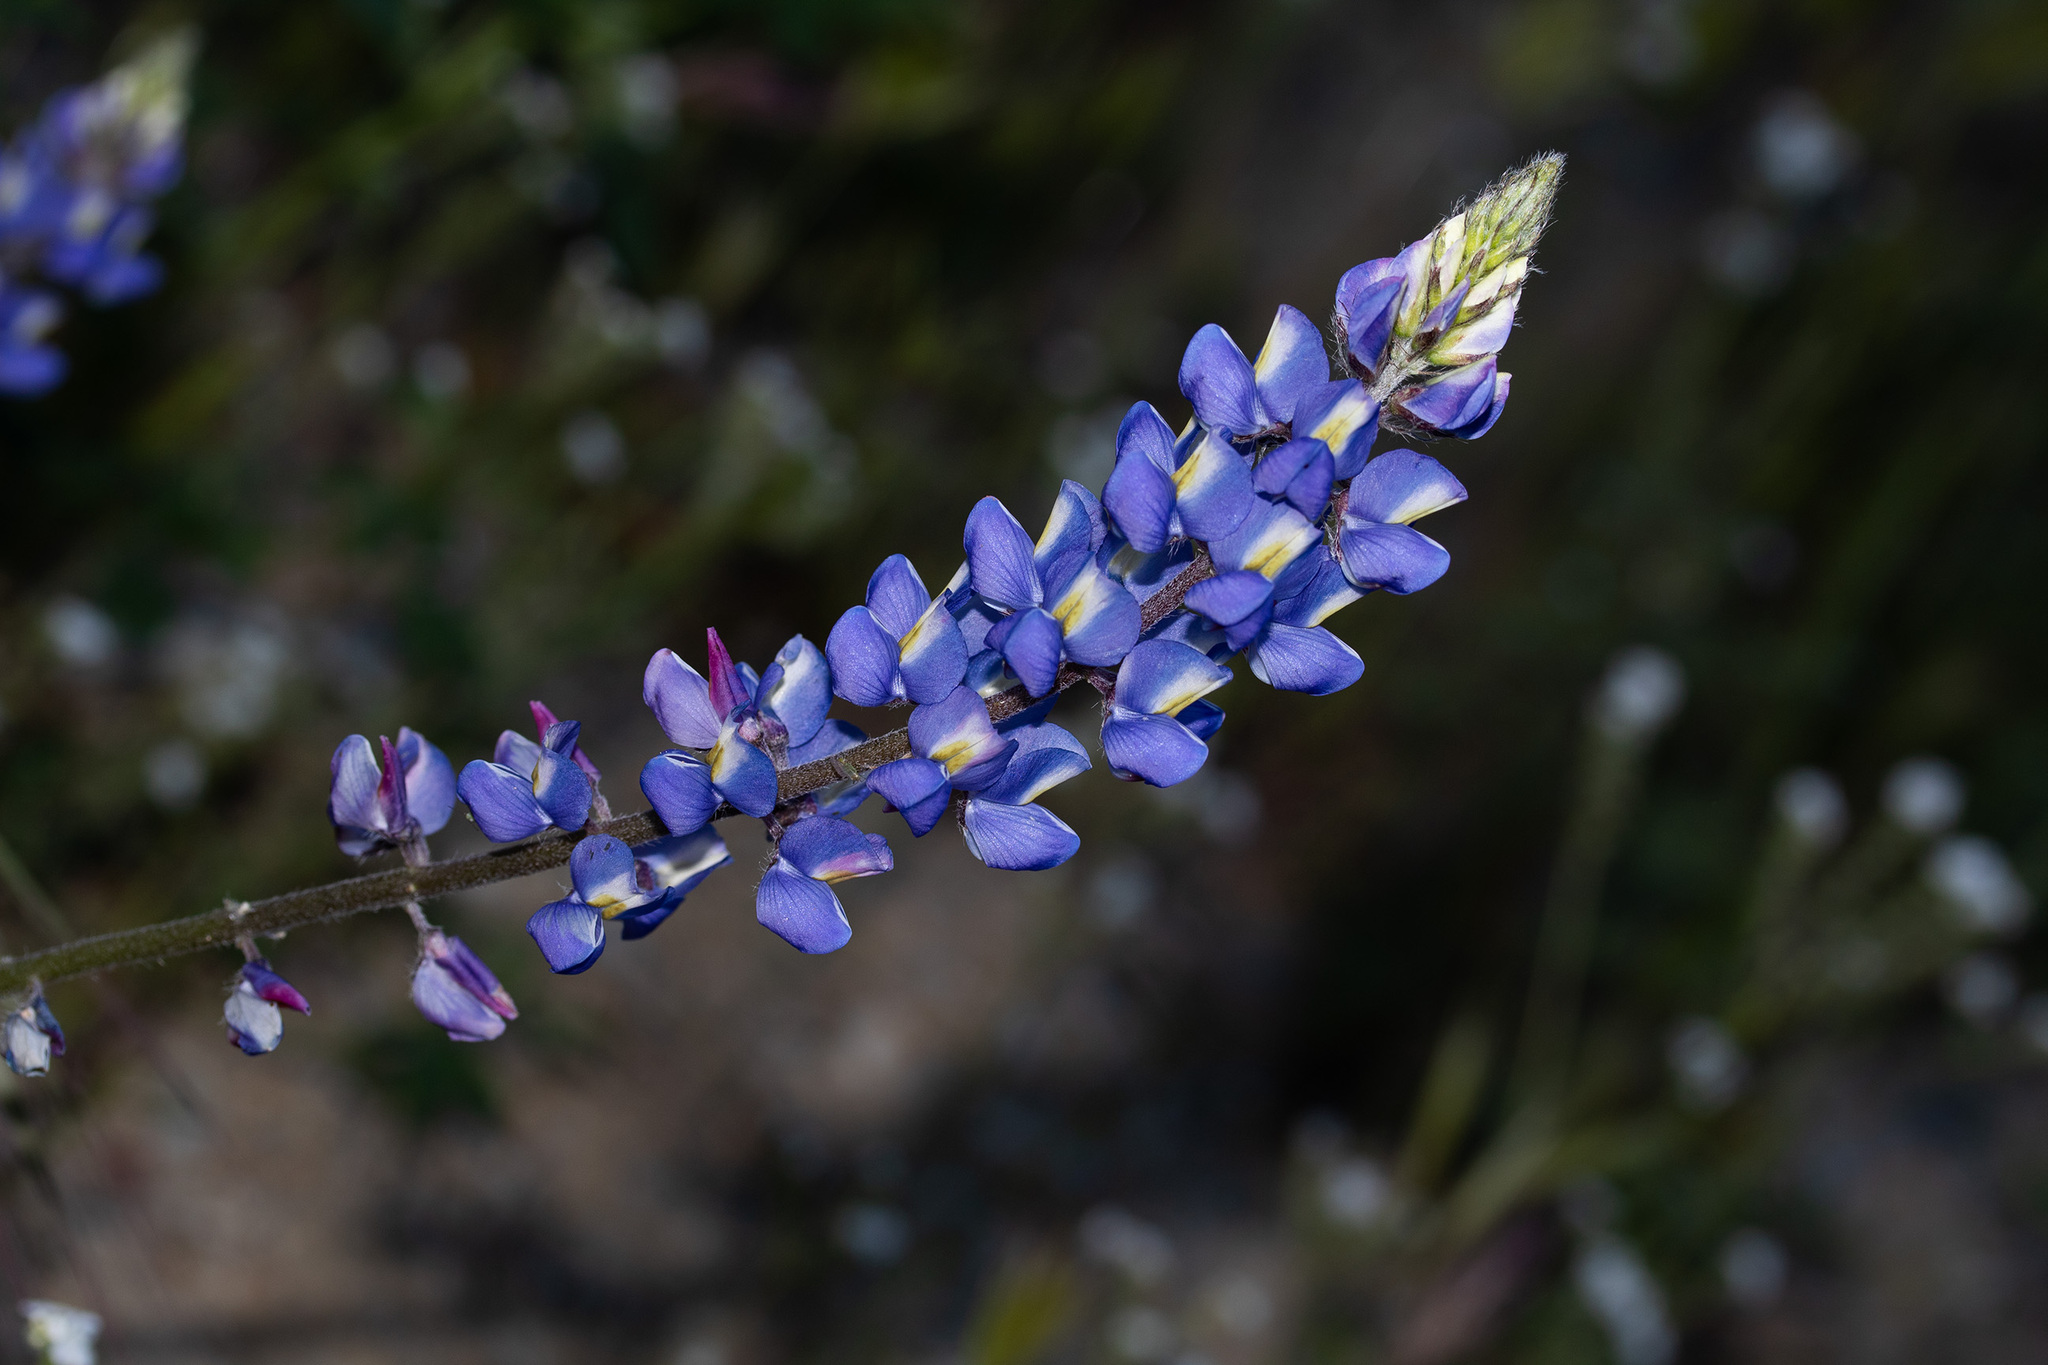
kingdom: Plantae
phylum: Tracheophyta
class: Magnoliopsida
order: Fabales
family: Fabaceae
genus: Lupinus
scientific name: Lupinus sparsiflorus
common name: Coulter's lupine
